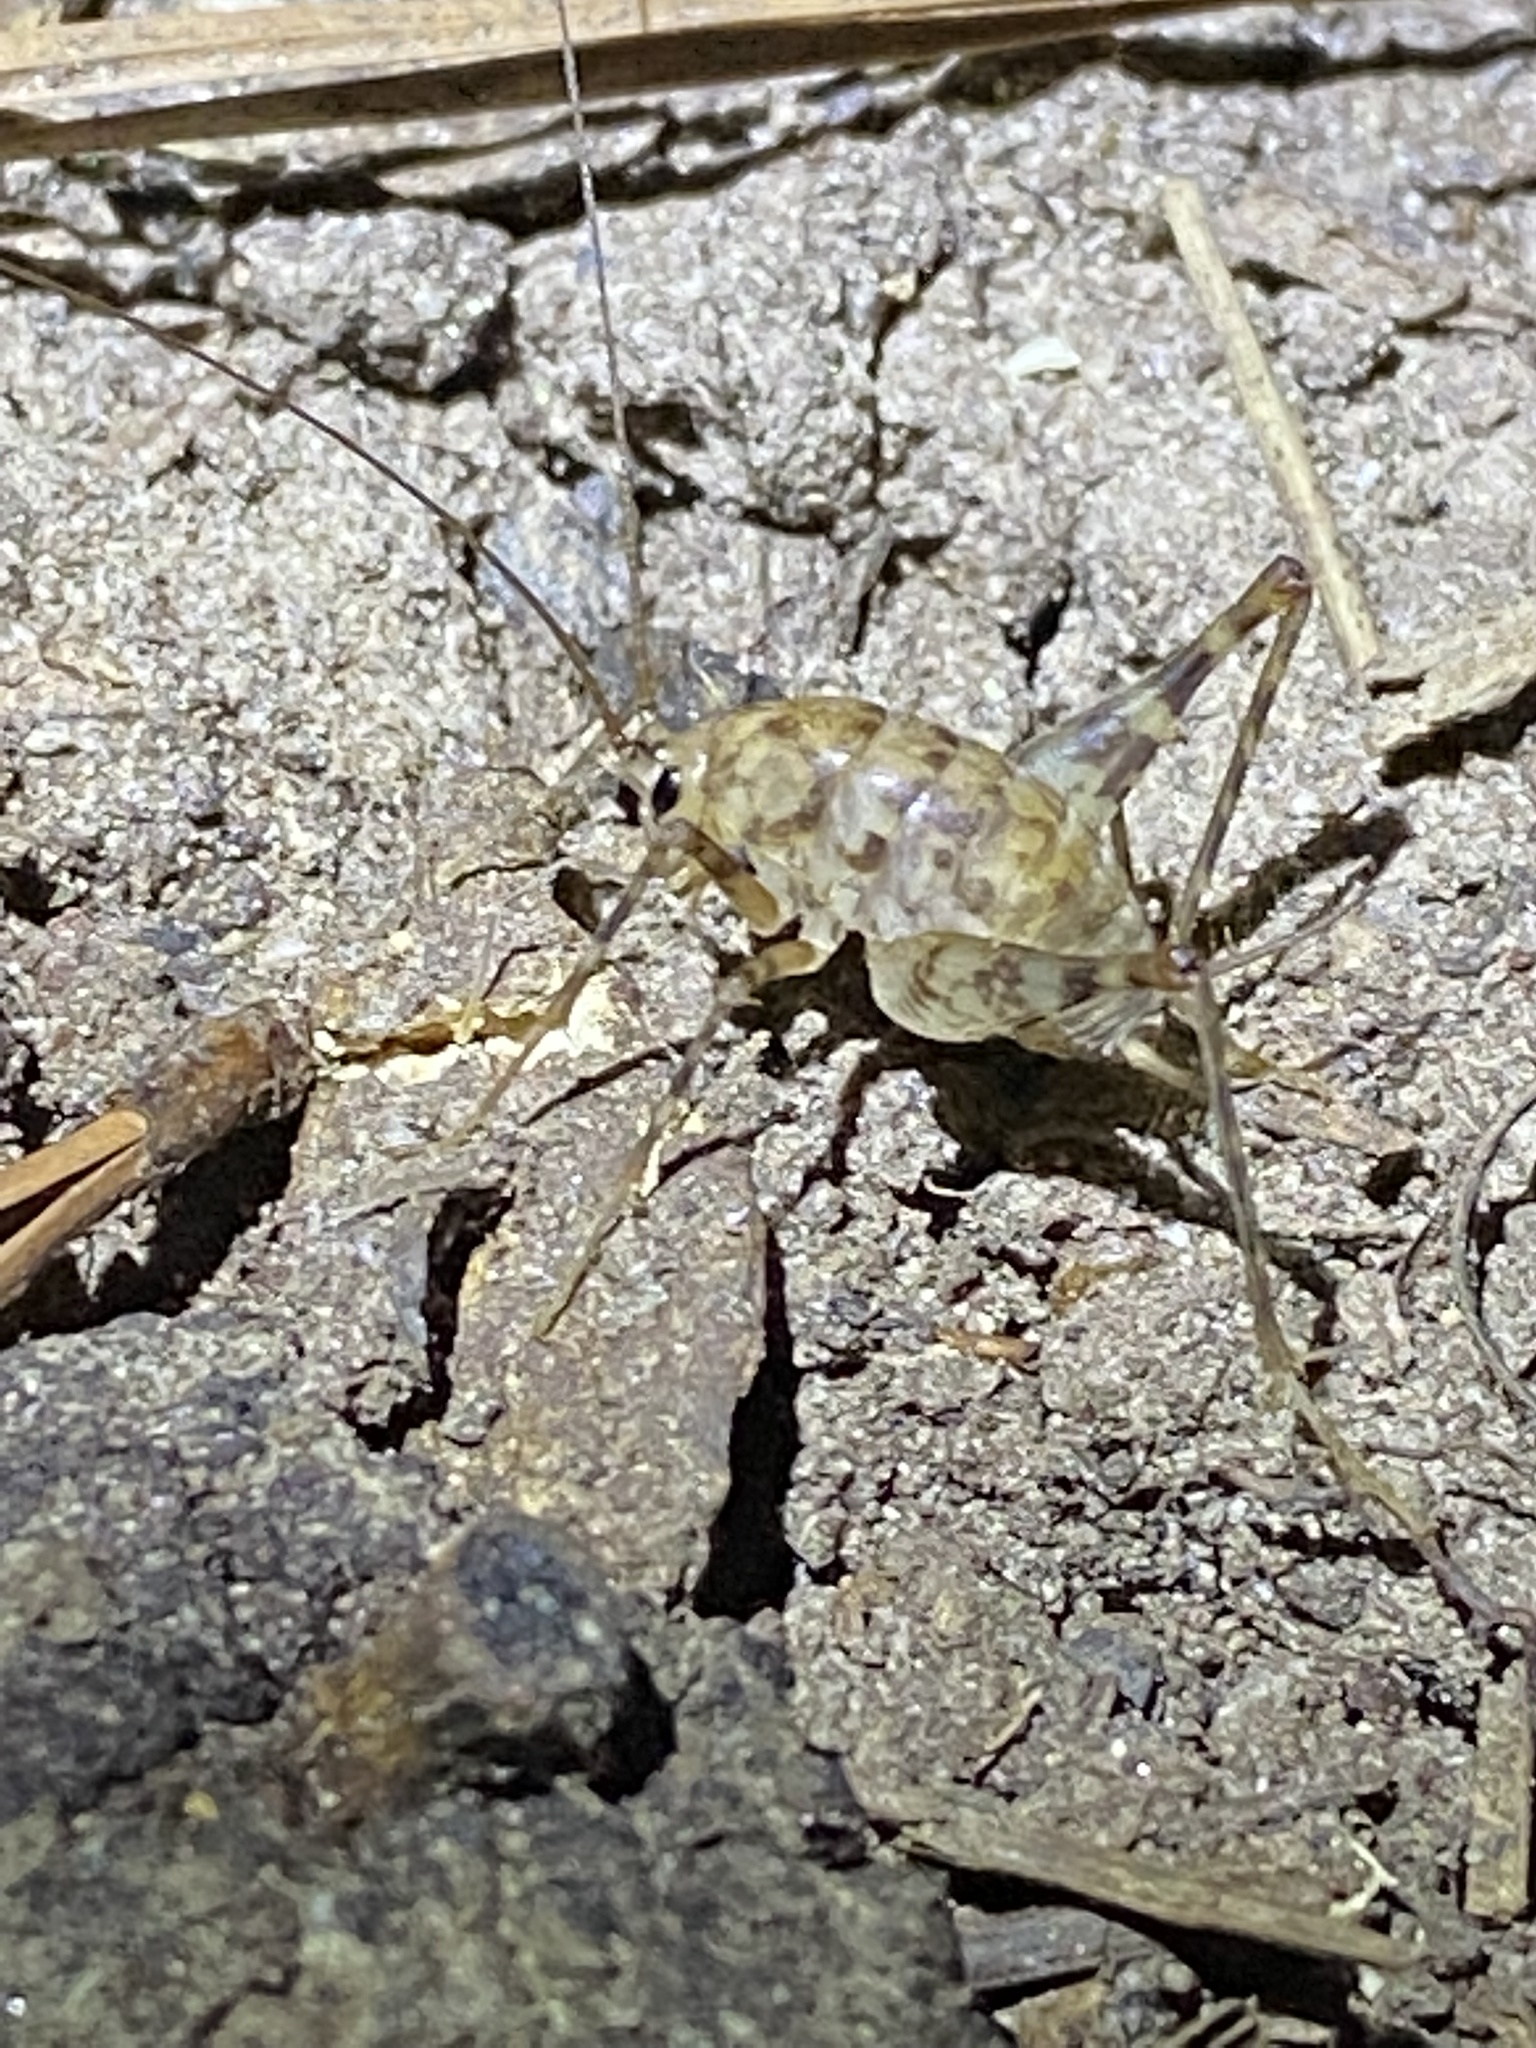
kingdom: Animalia
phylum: Arthropoda
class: Insecta
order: Orthoptera
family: Rhaphidophoridae
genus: Tachycines
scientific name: Tachycines asynamorus
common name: Greenhouse camel cricket
